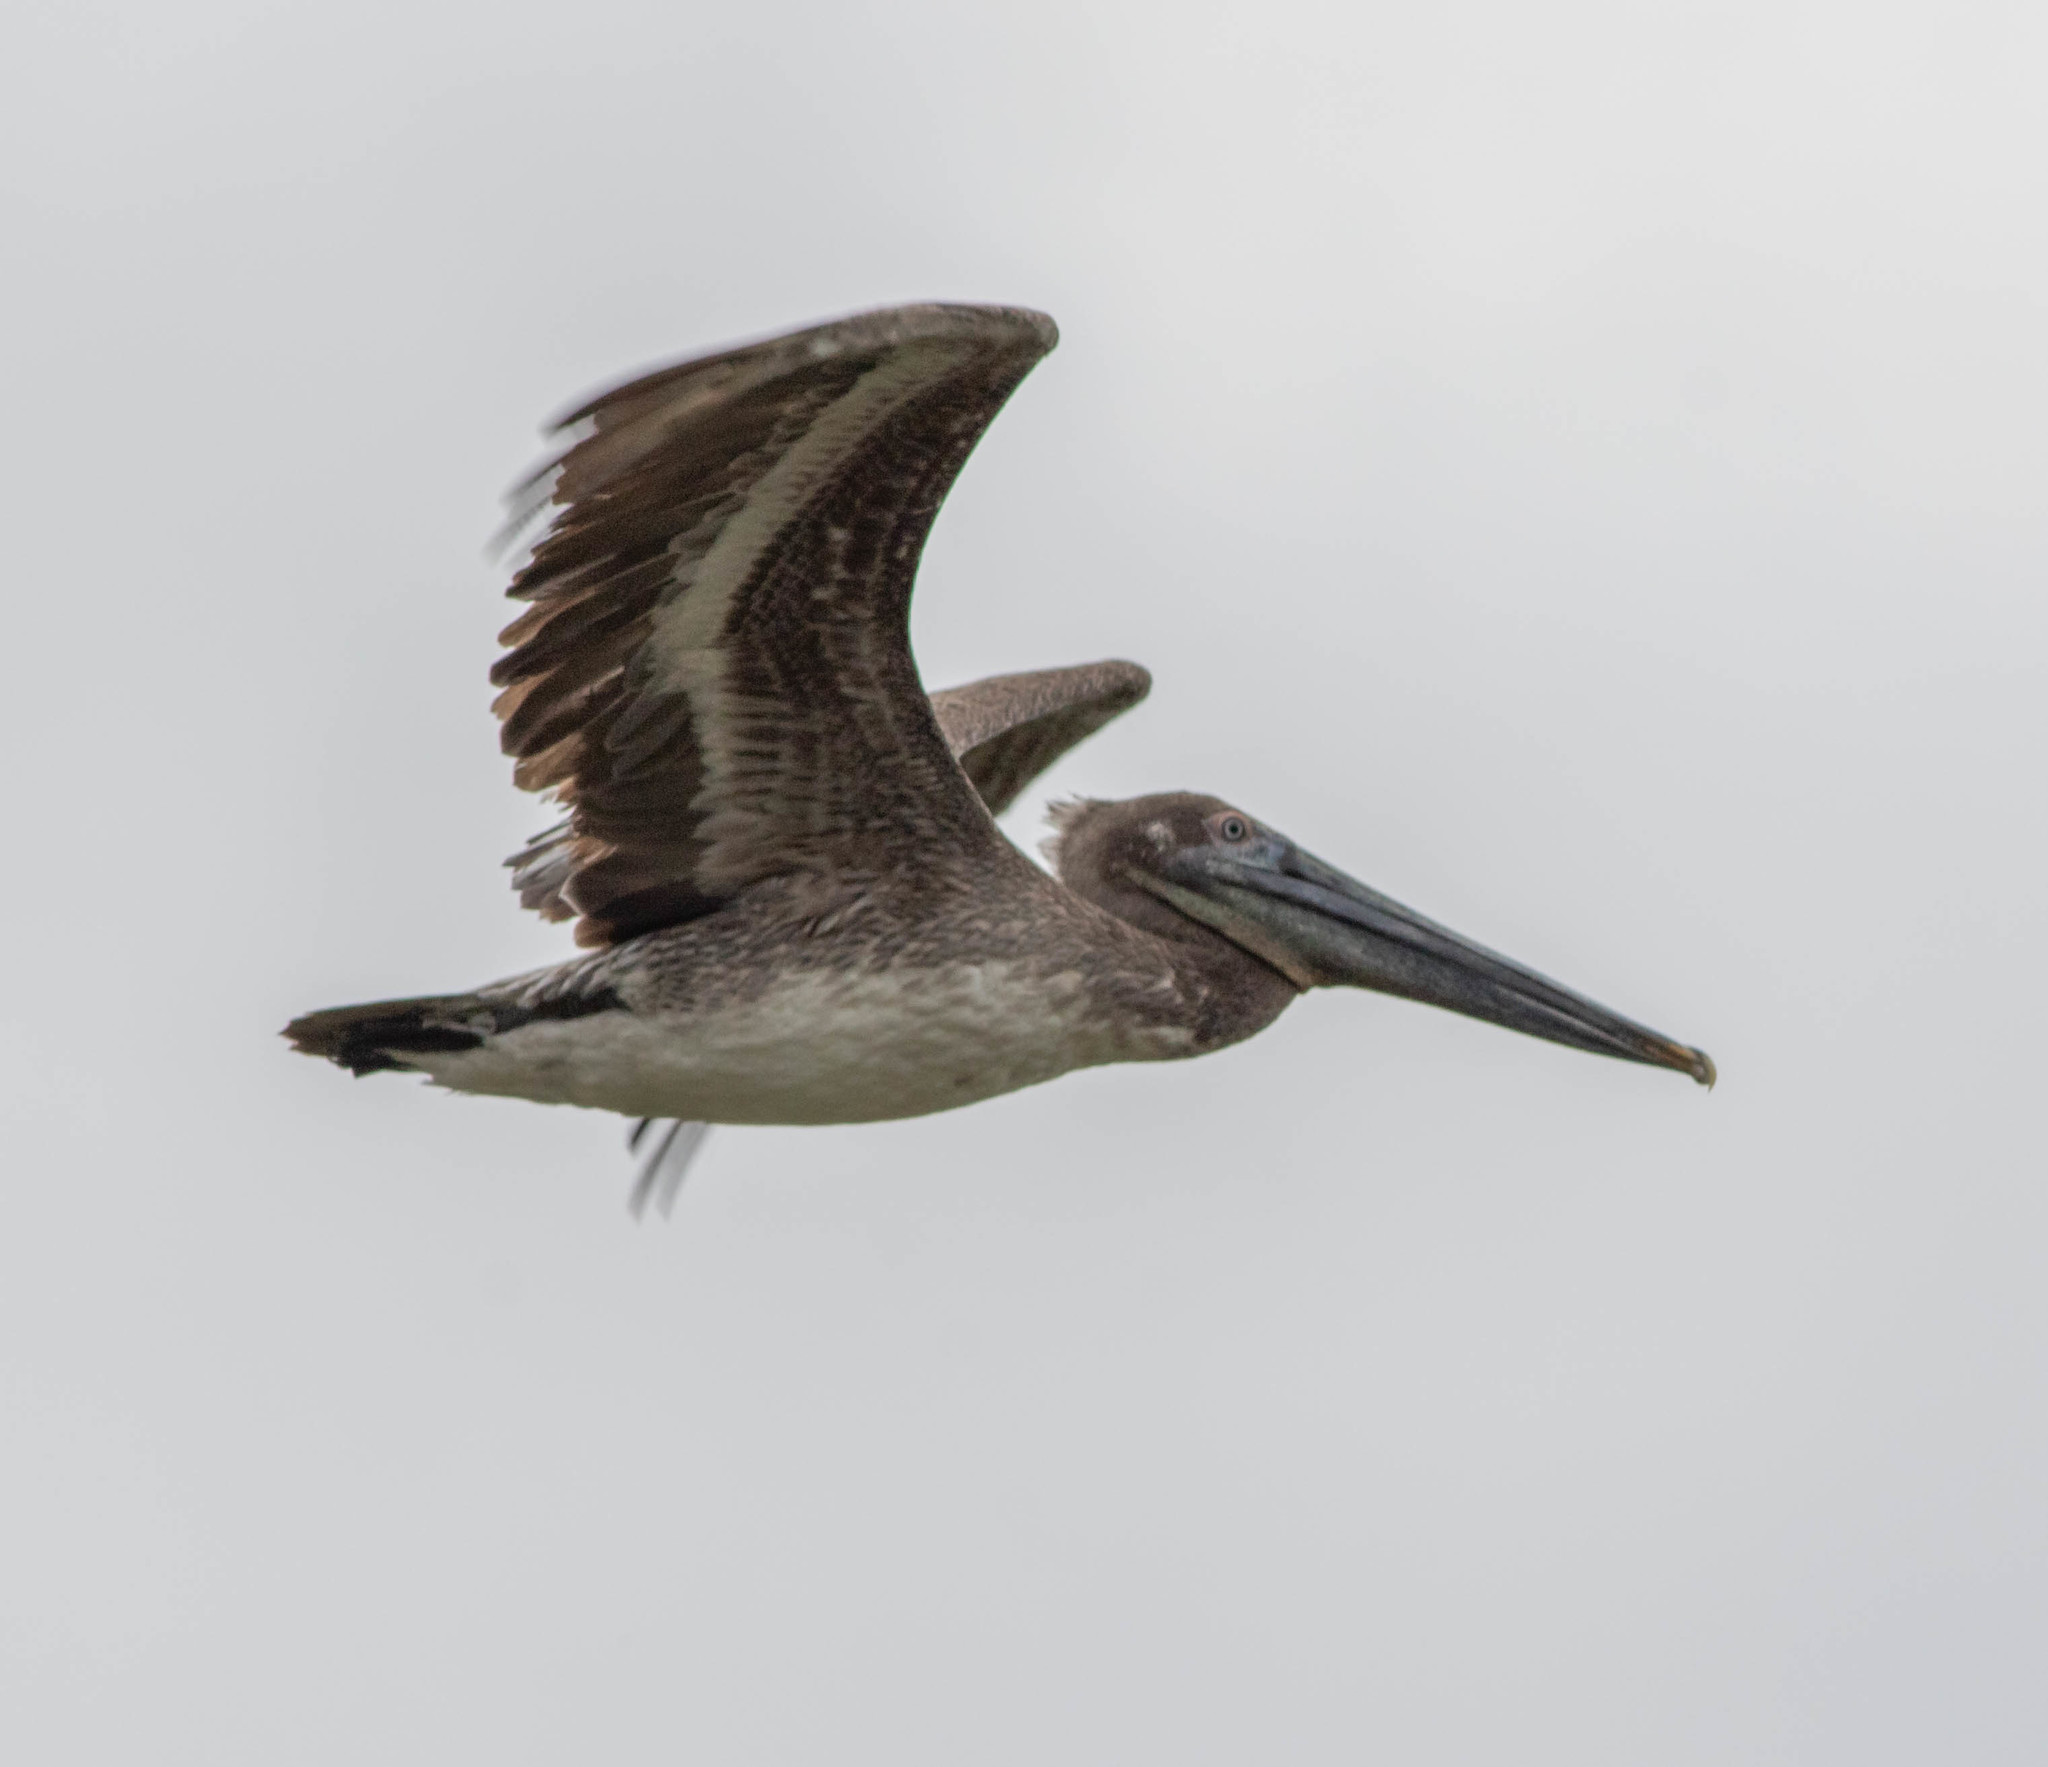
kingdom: Animalia
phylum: Chordata
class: Aves
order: Pelecaniformes
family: Pelecanidae
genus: Pelecanus
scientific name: Pelecanus occidentalis
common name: Brown pelican
